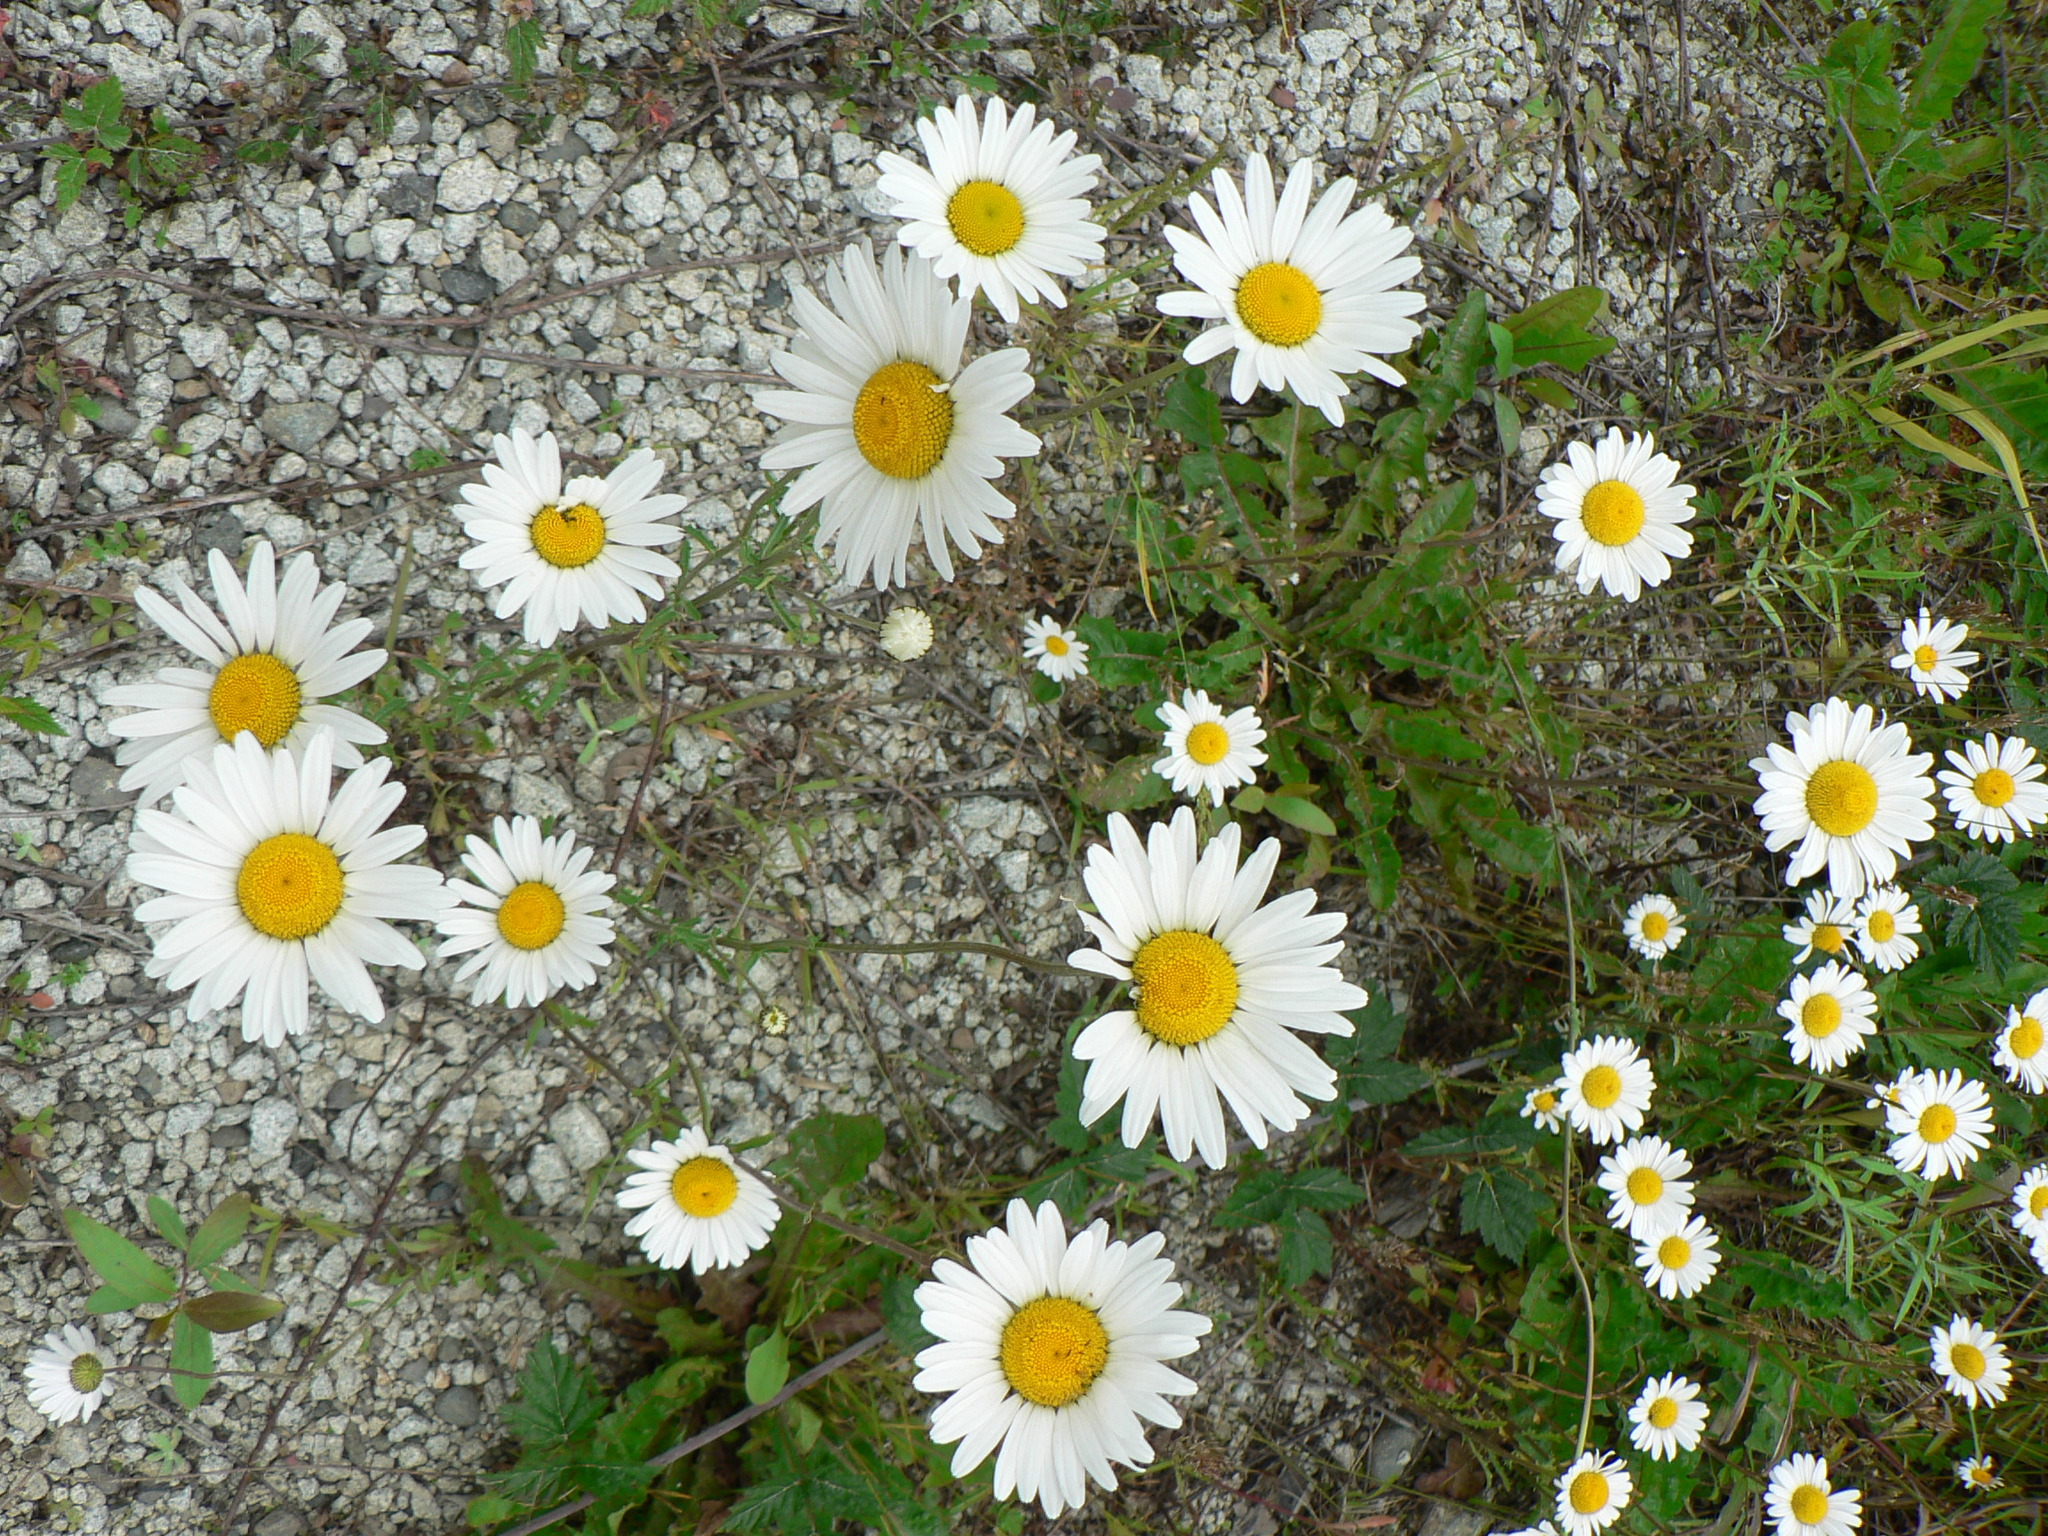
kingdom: Plantae
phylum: Tracheophyta
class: Magnoliopsida
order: Asterales
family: Asteraceae
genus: Leucanthemum
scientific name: Leucanthemum vulgare
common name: Oxeye daisy
